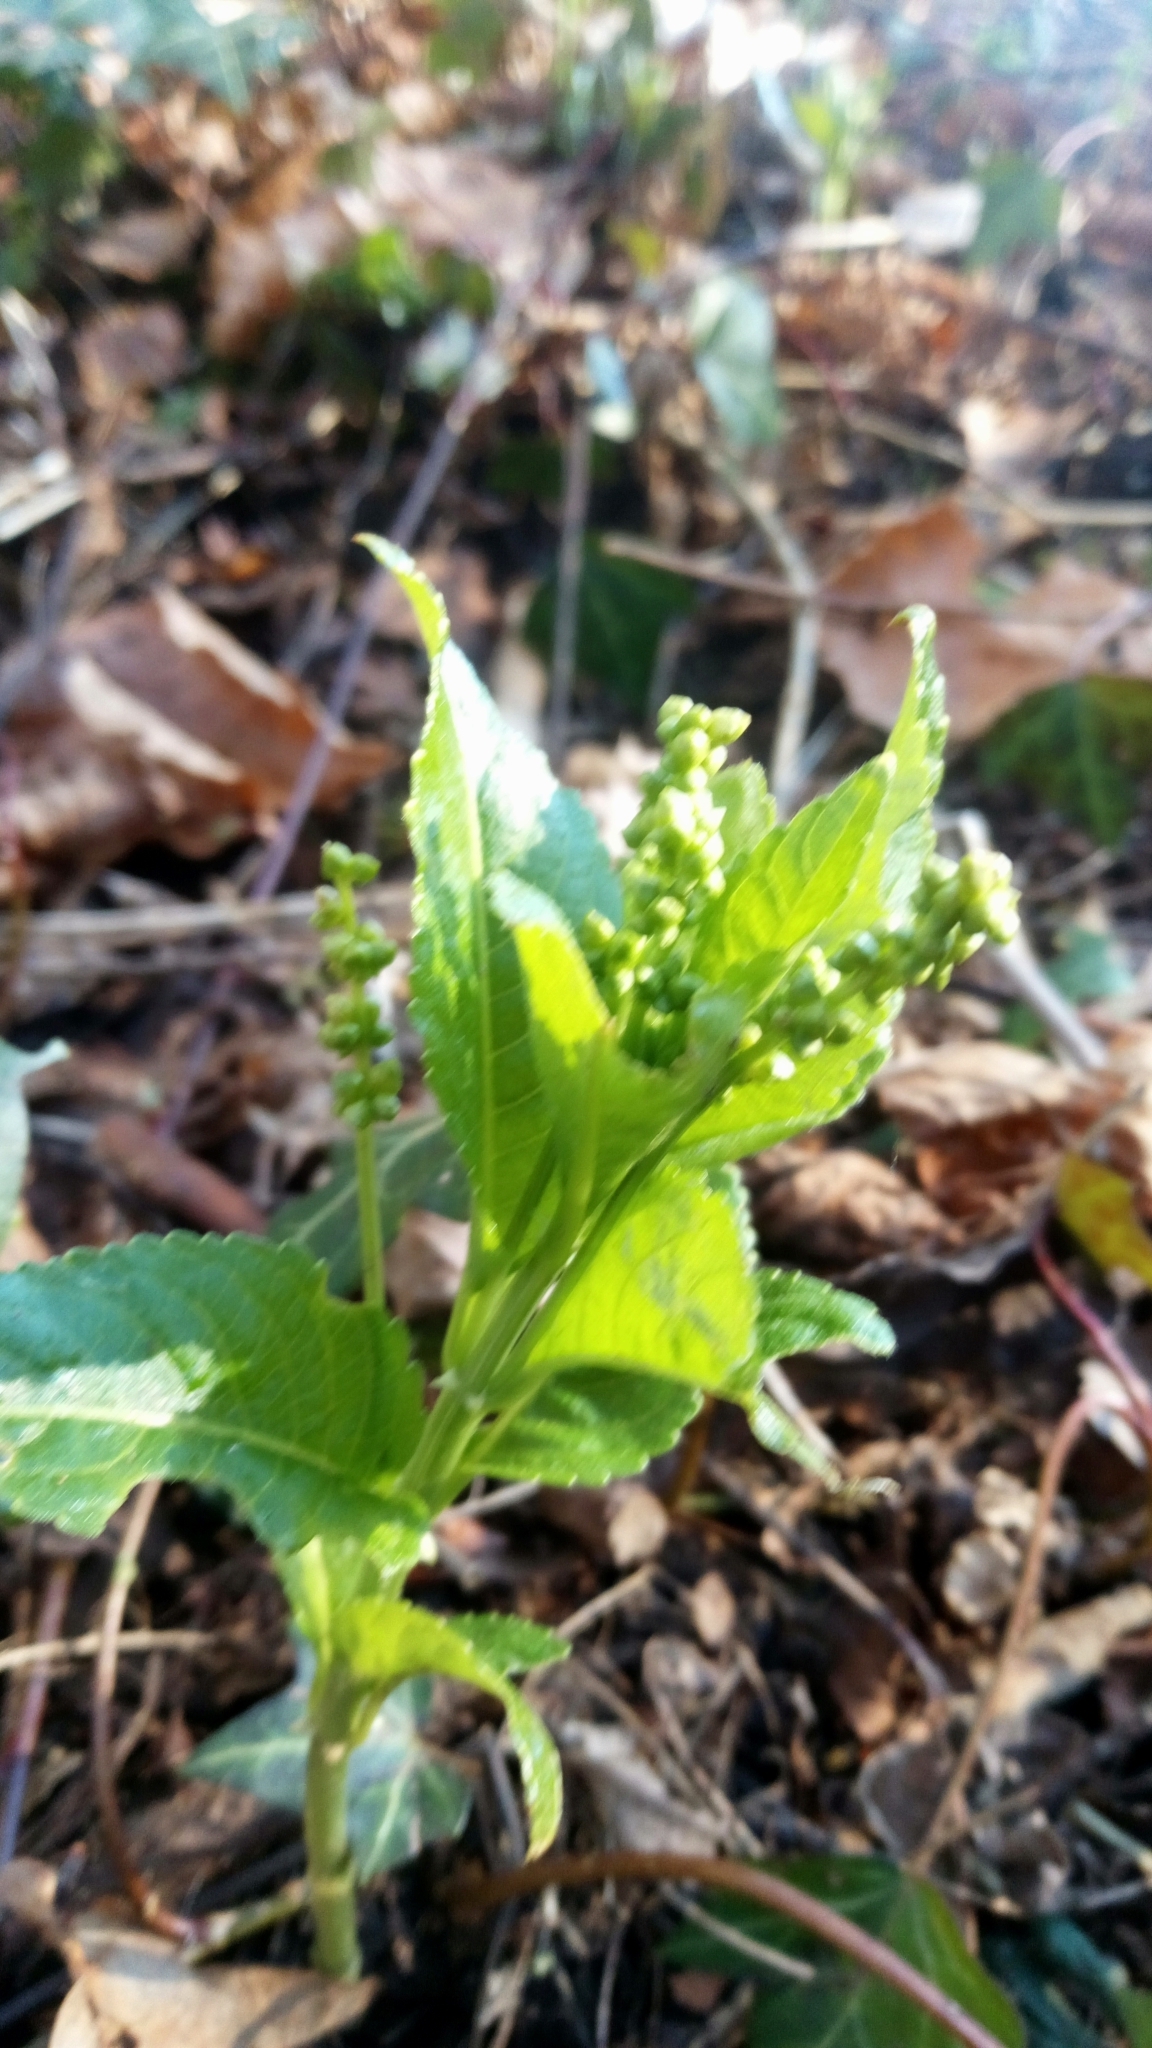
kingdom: Plantae
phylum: Tracheophyta
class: Magnoliopsida
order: Malpighiales
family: Euphorbiaceae
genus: Mercurialis
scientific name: Mercurialis perennis
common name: Dog mercury
